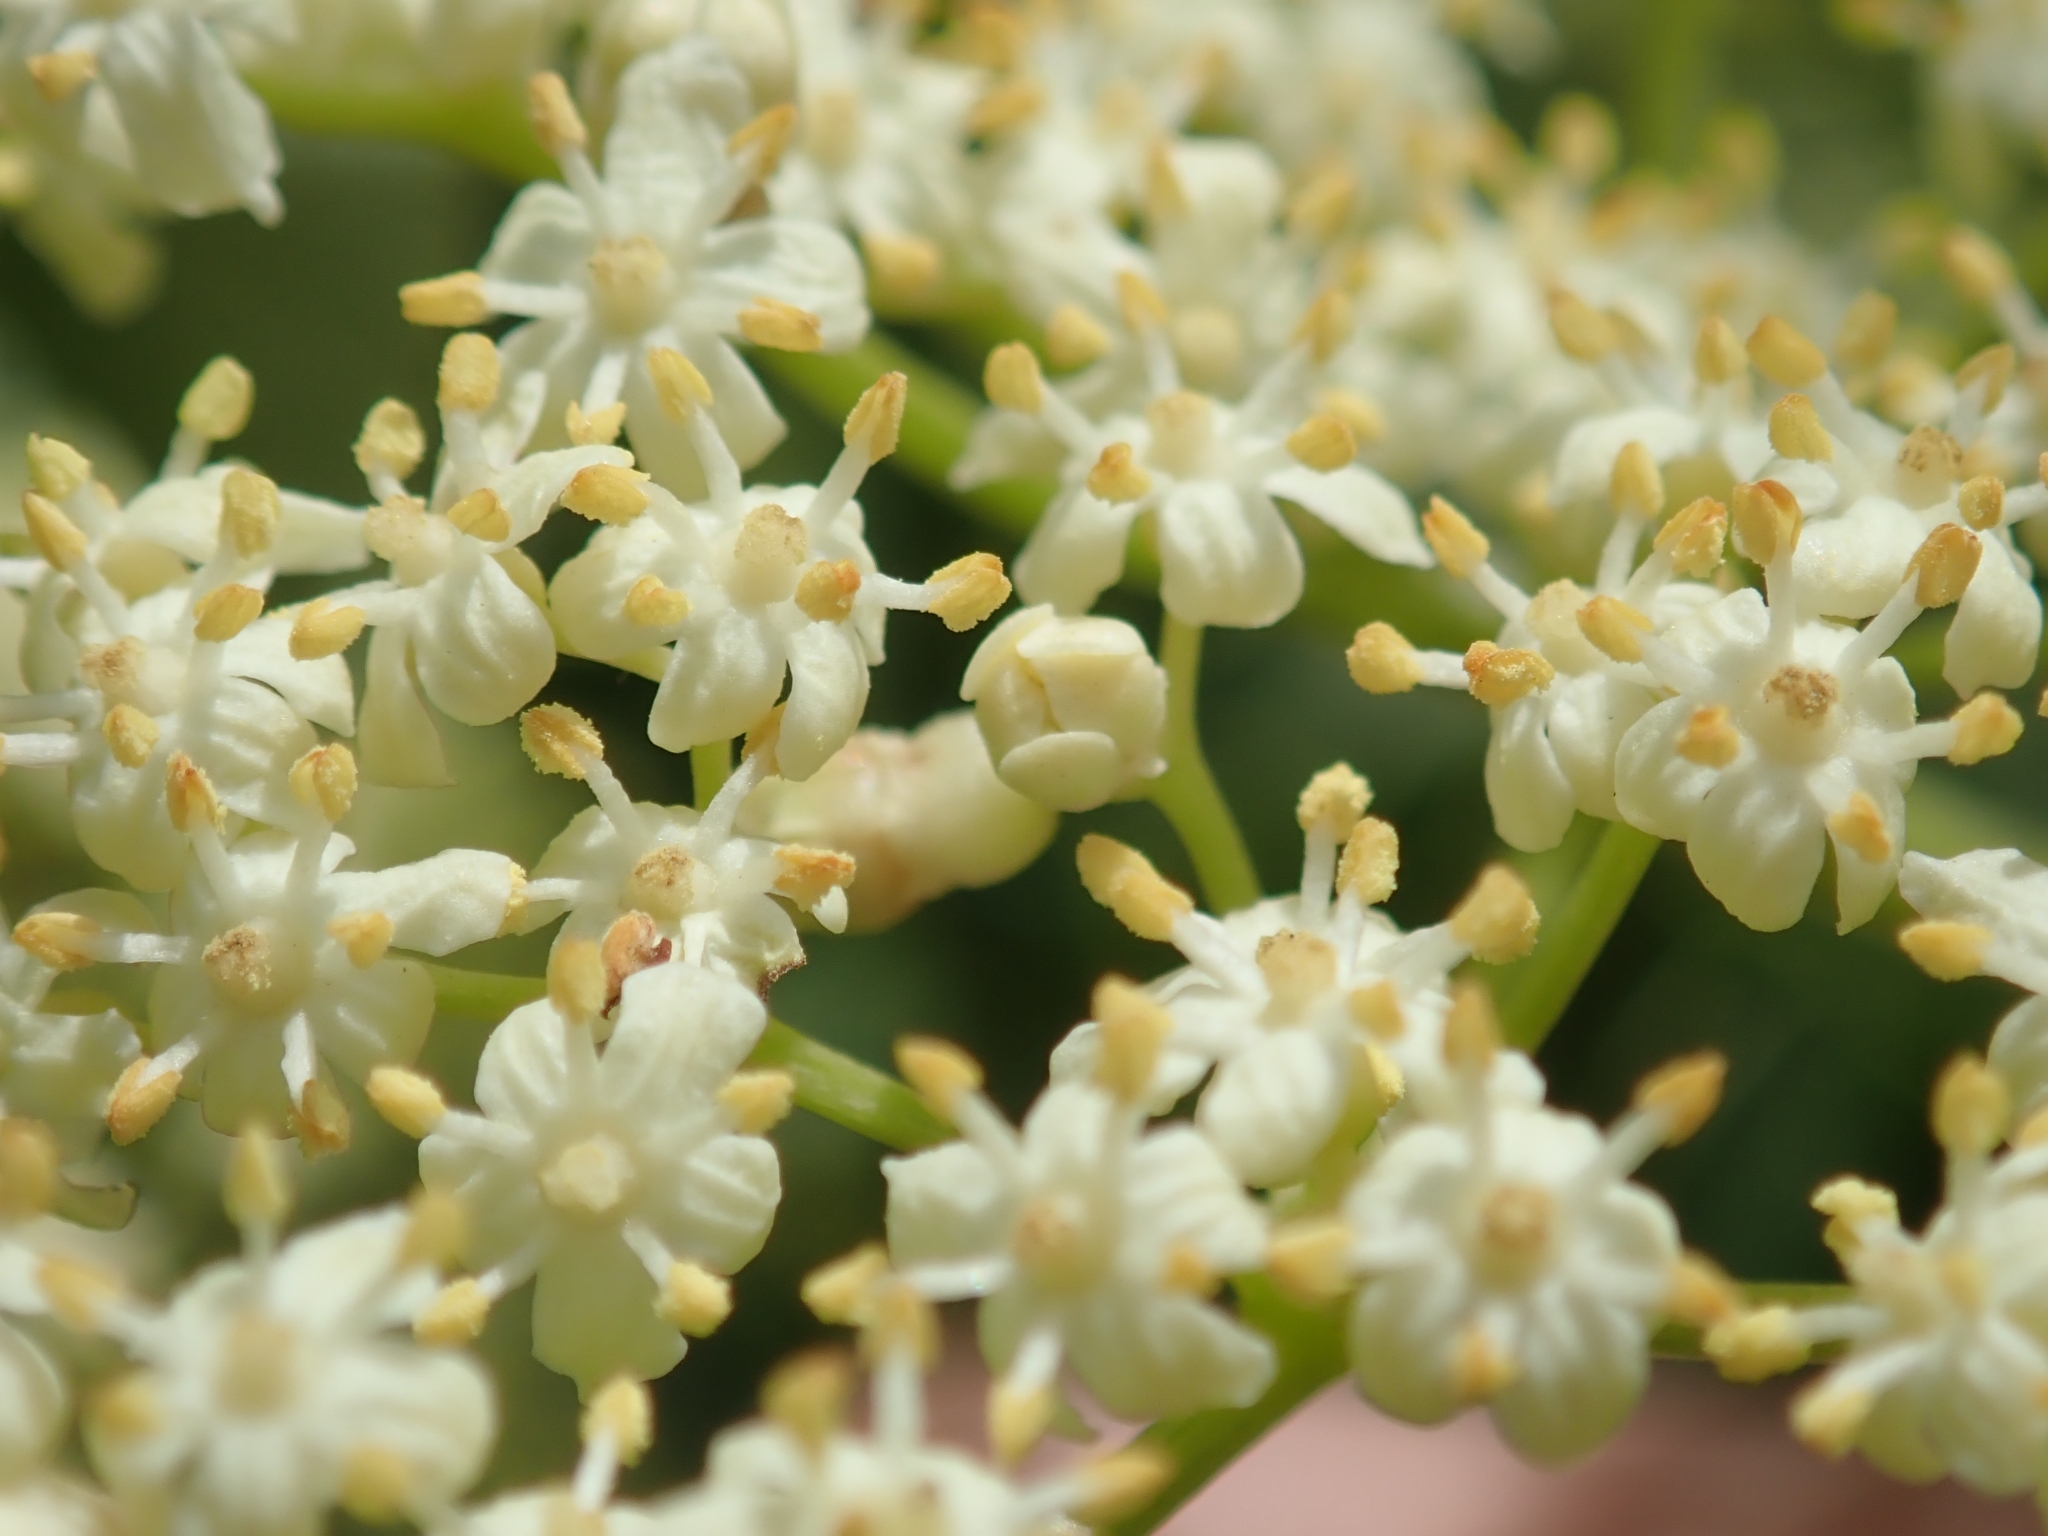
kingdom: Plantae
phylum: Tracheophyta
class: Magnoliopsida
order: Dipsacales
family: Viburnaceae
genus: Sambucus
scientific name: Sambucus cerulea
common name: Blue elder
